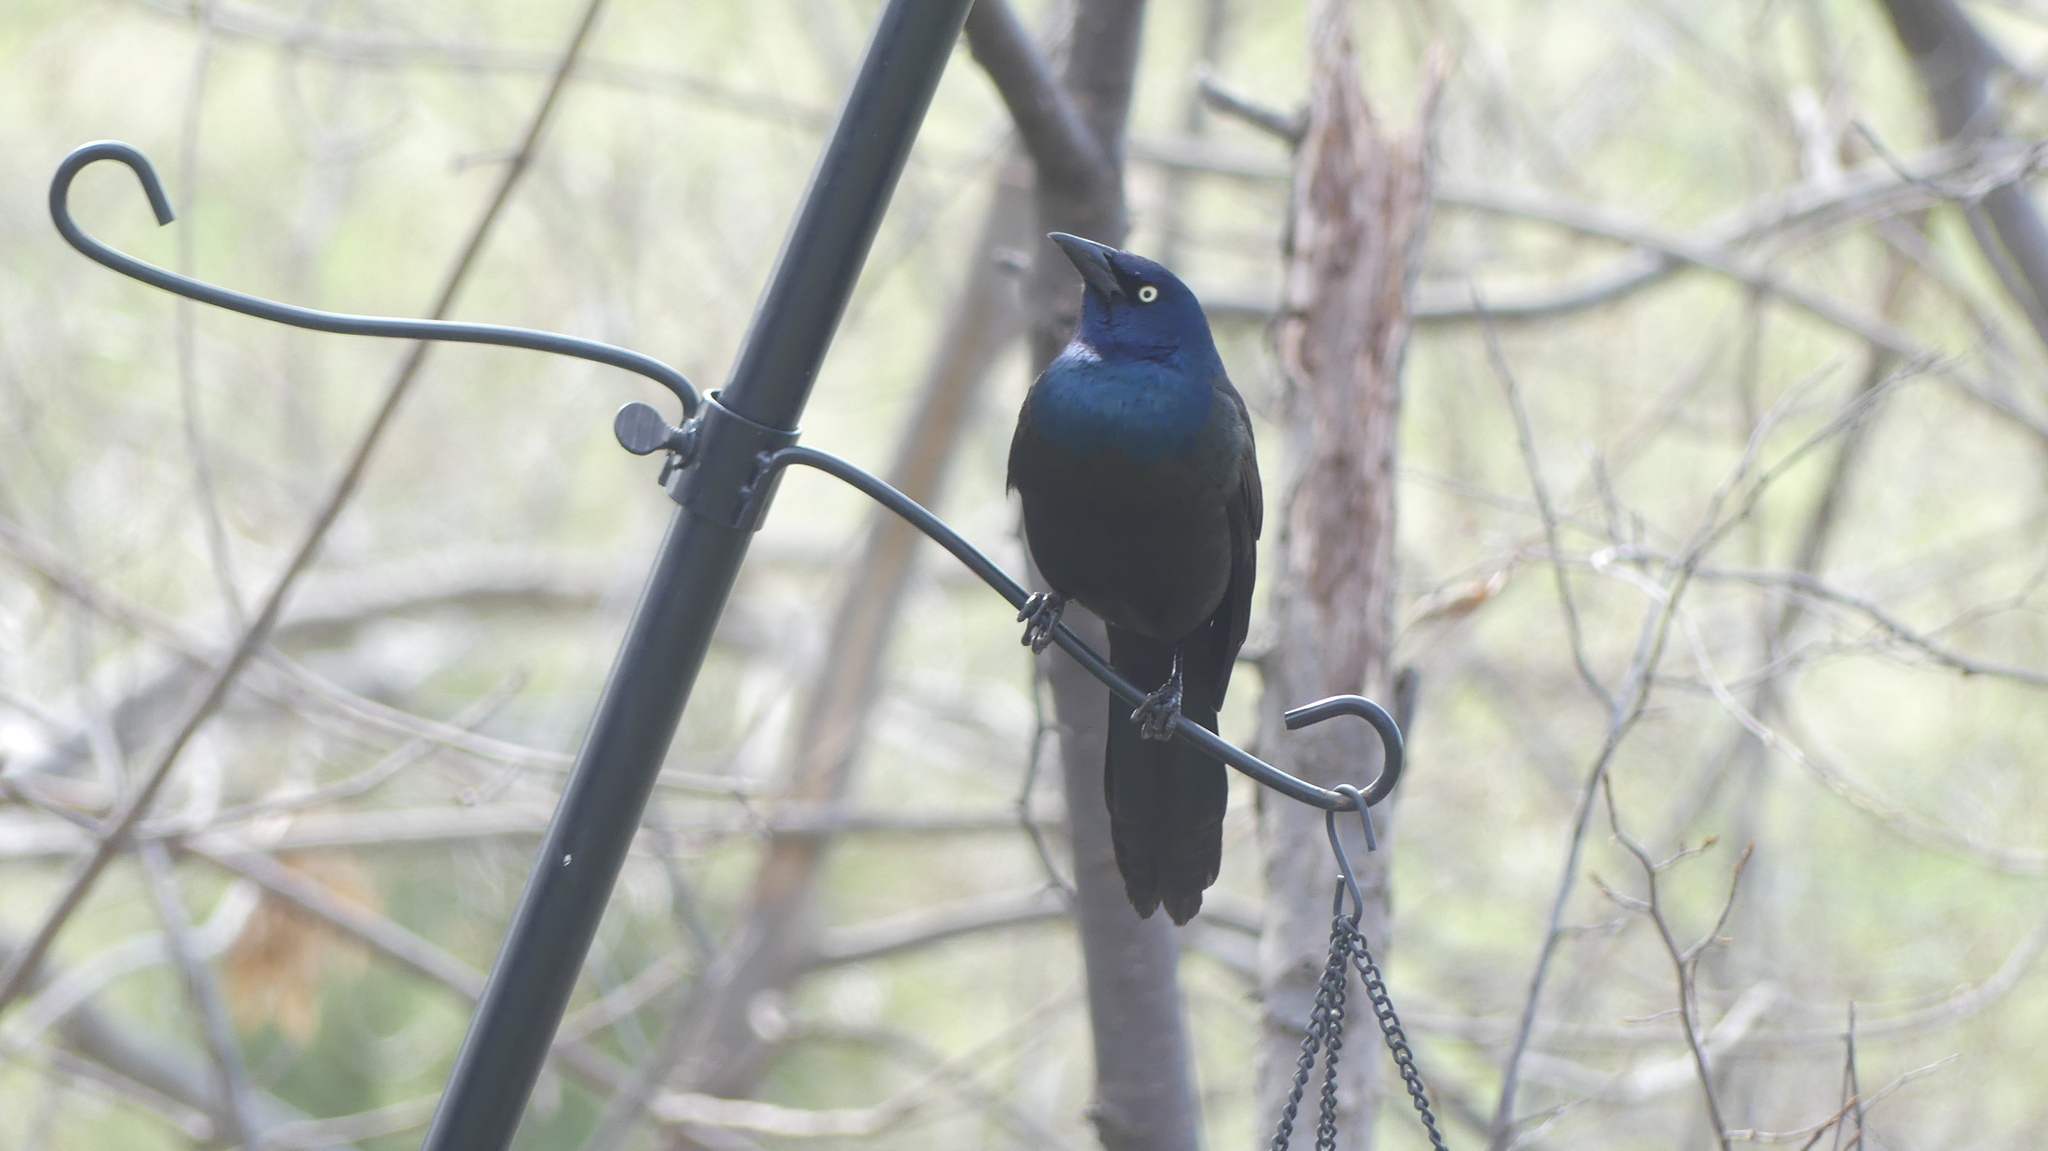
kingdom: Animalia
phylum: Chordata
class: Aves
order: Passeriformes
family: Icteridae
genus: Quiscalus
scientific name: Quiscalus quiscula
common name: Common grackle
